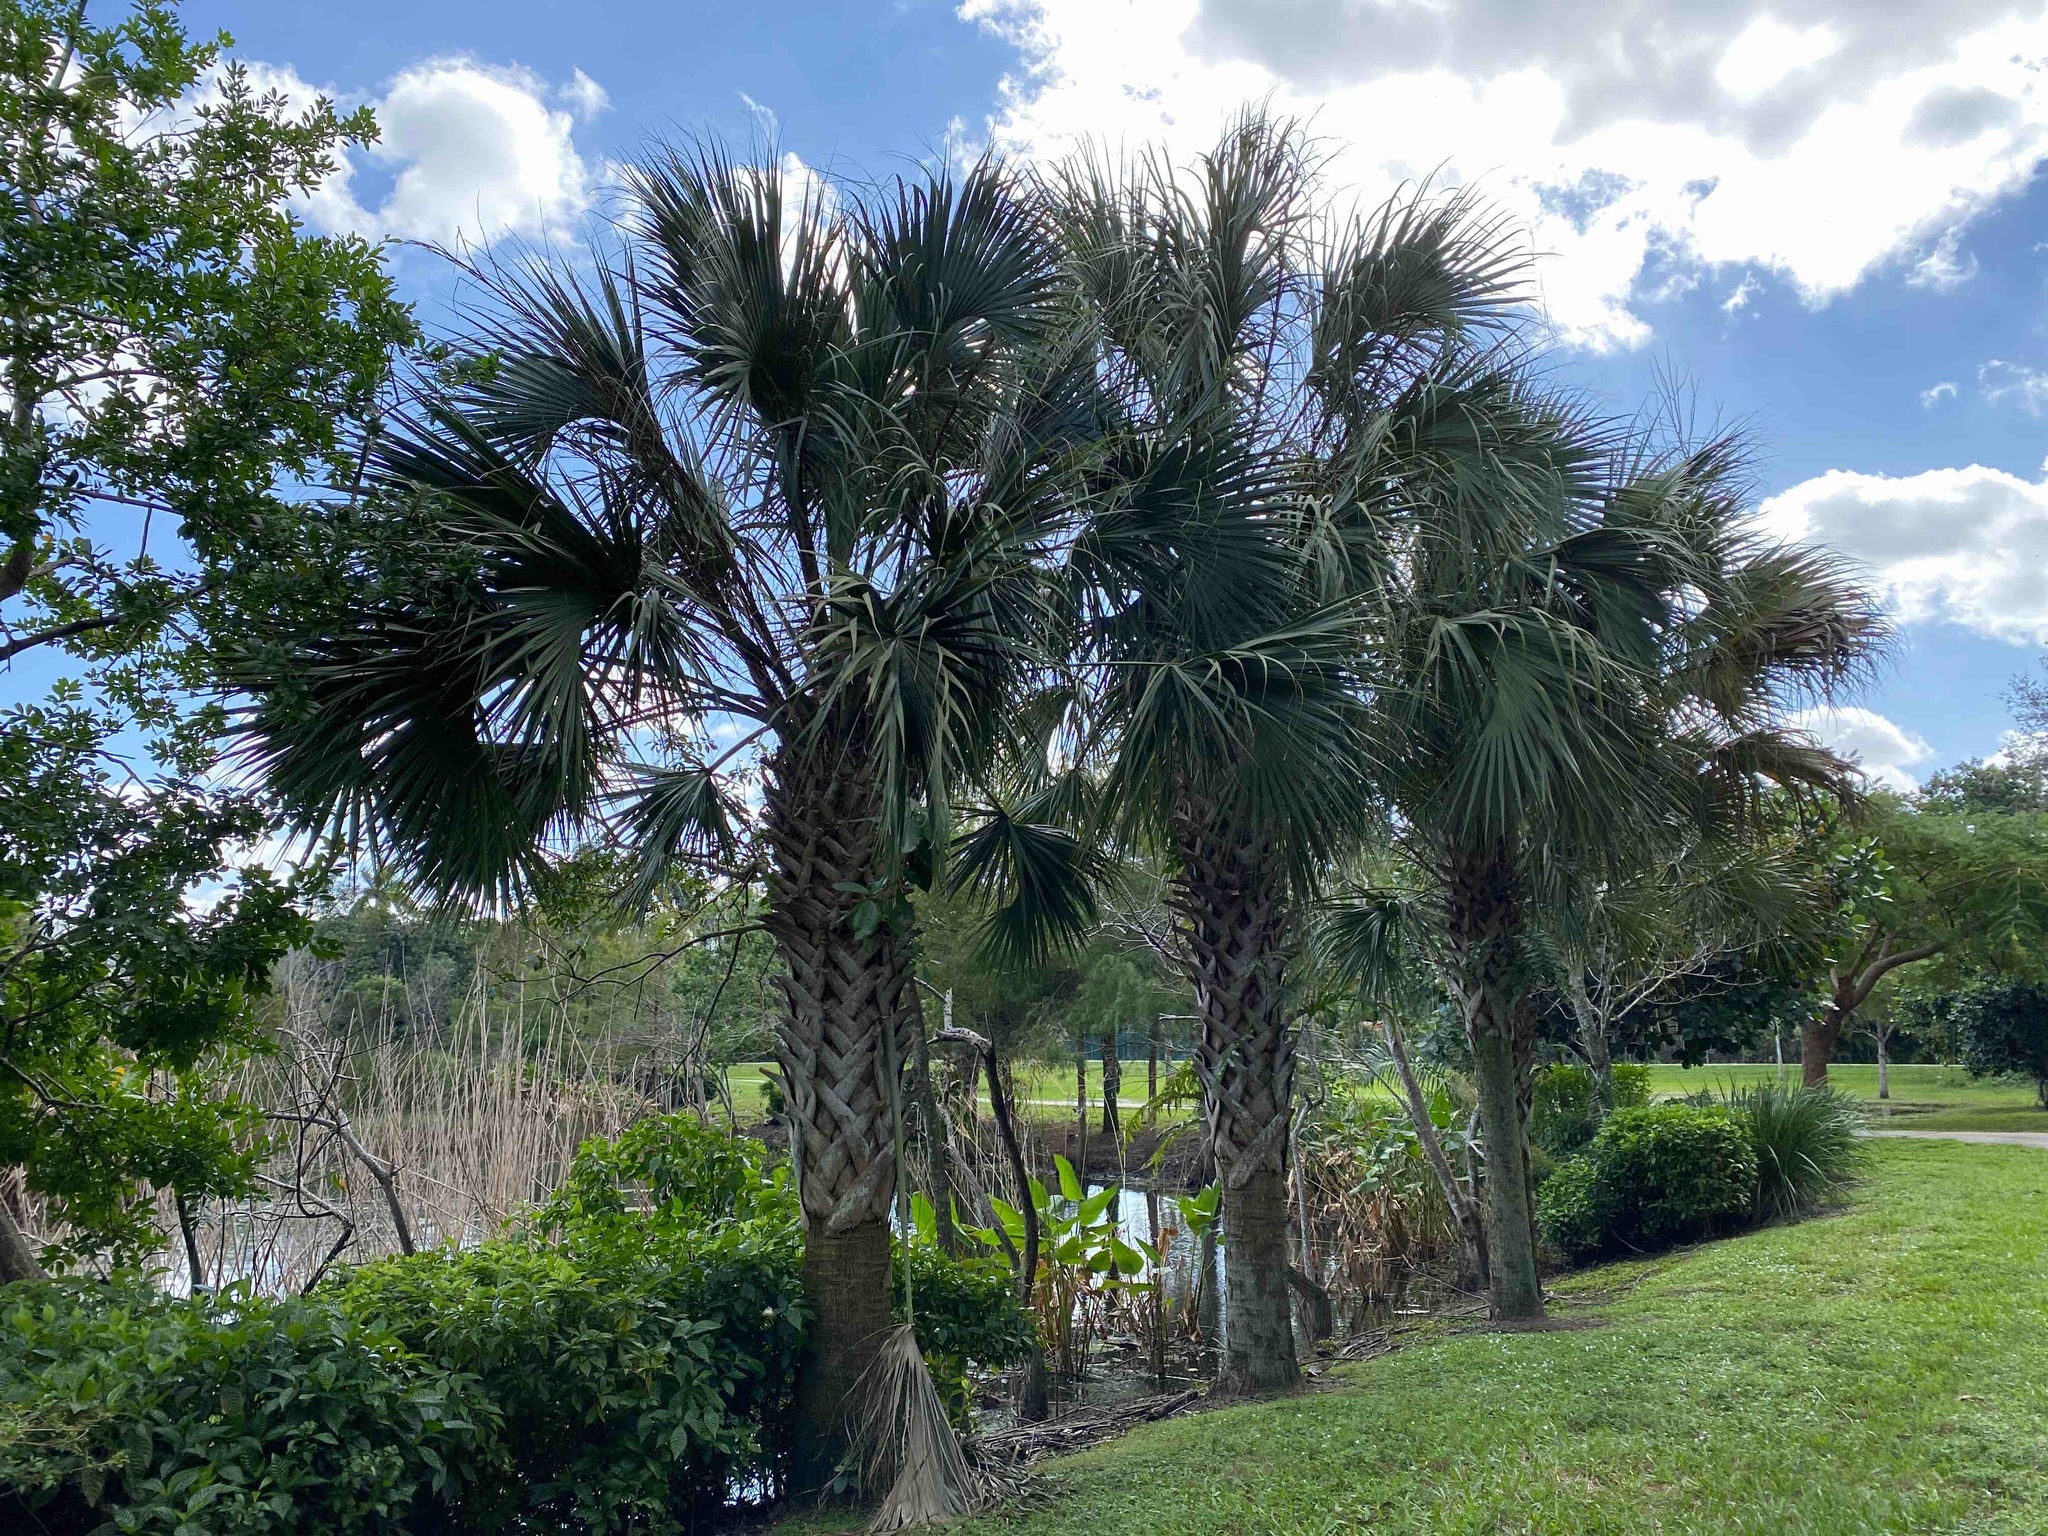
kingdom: Plantae
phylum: Tracheophyta
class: Liliopsida
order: Arecales
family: Arecaceae
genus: Sabal
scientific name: Sabal palmetto
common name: Blue palmetto
